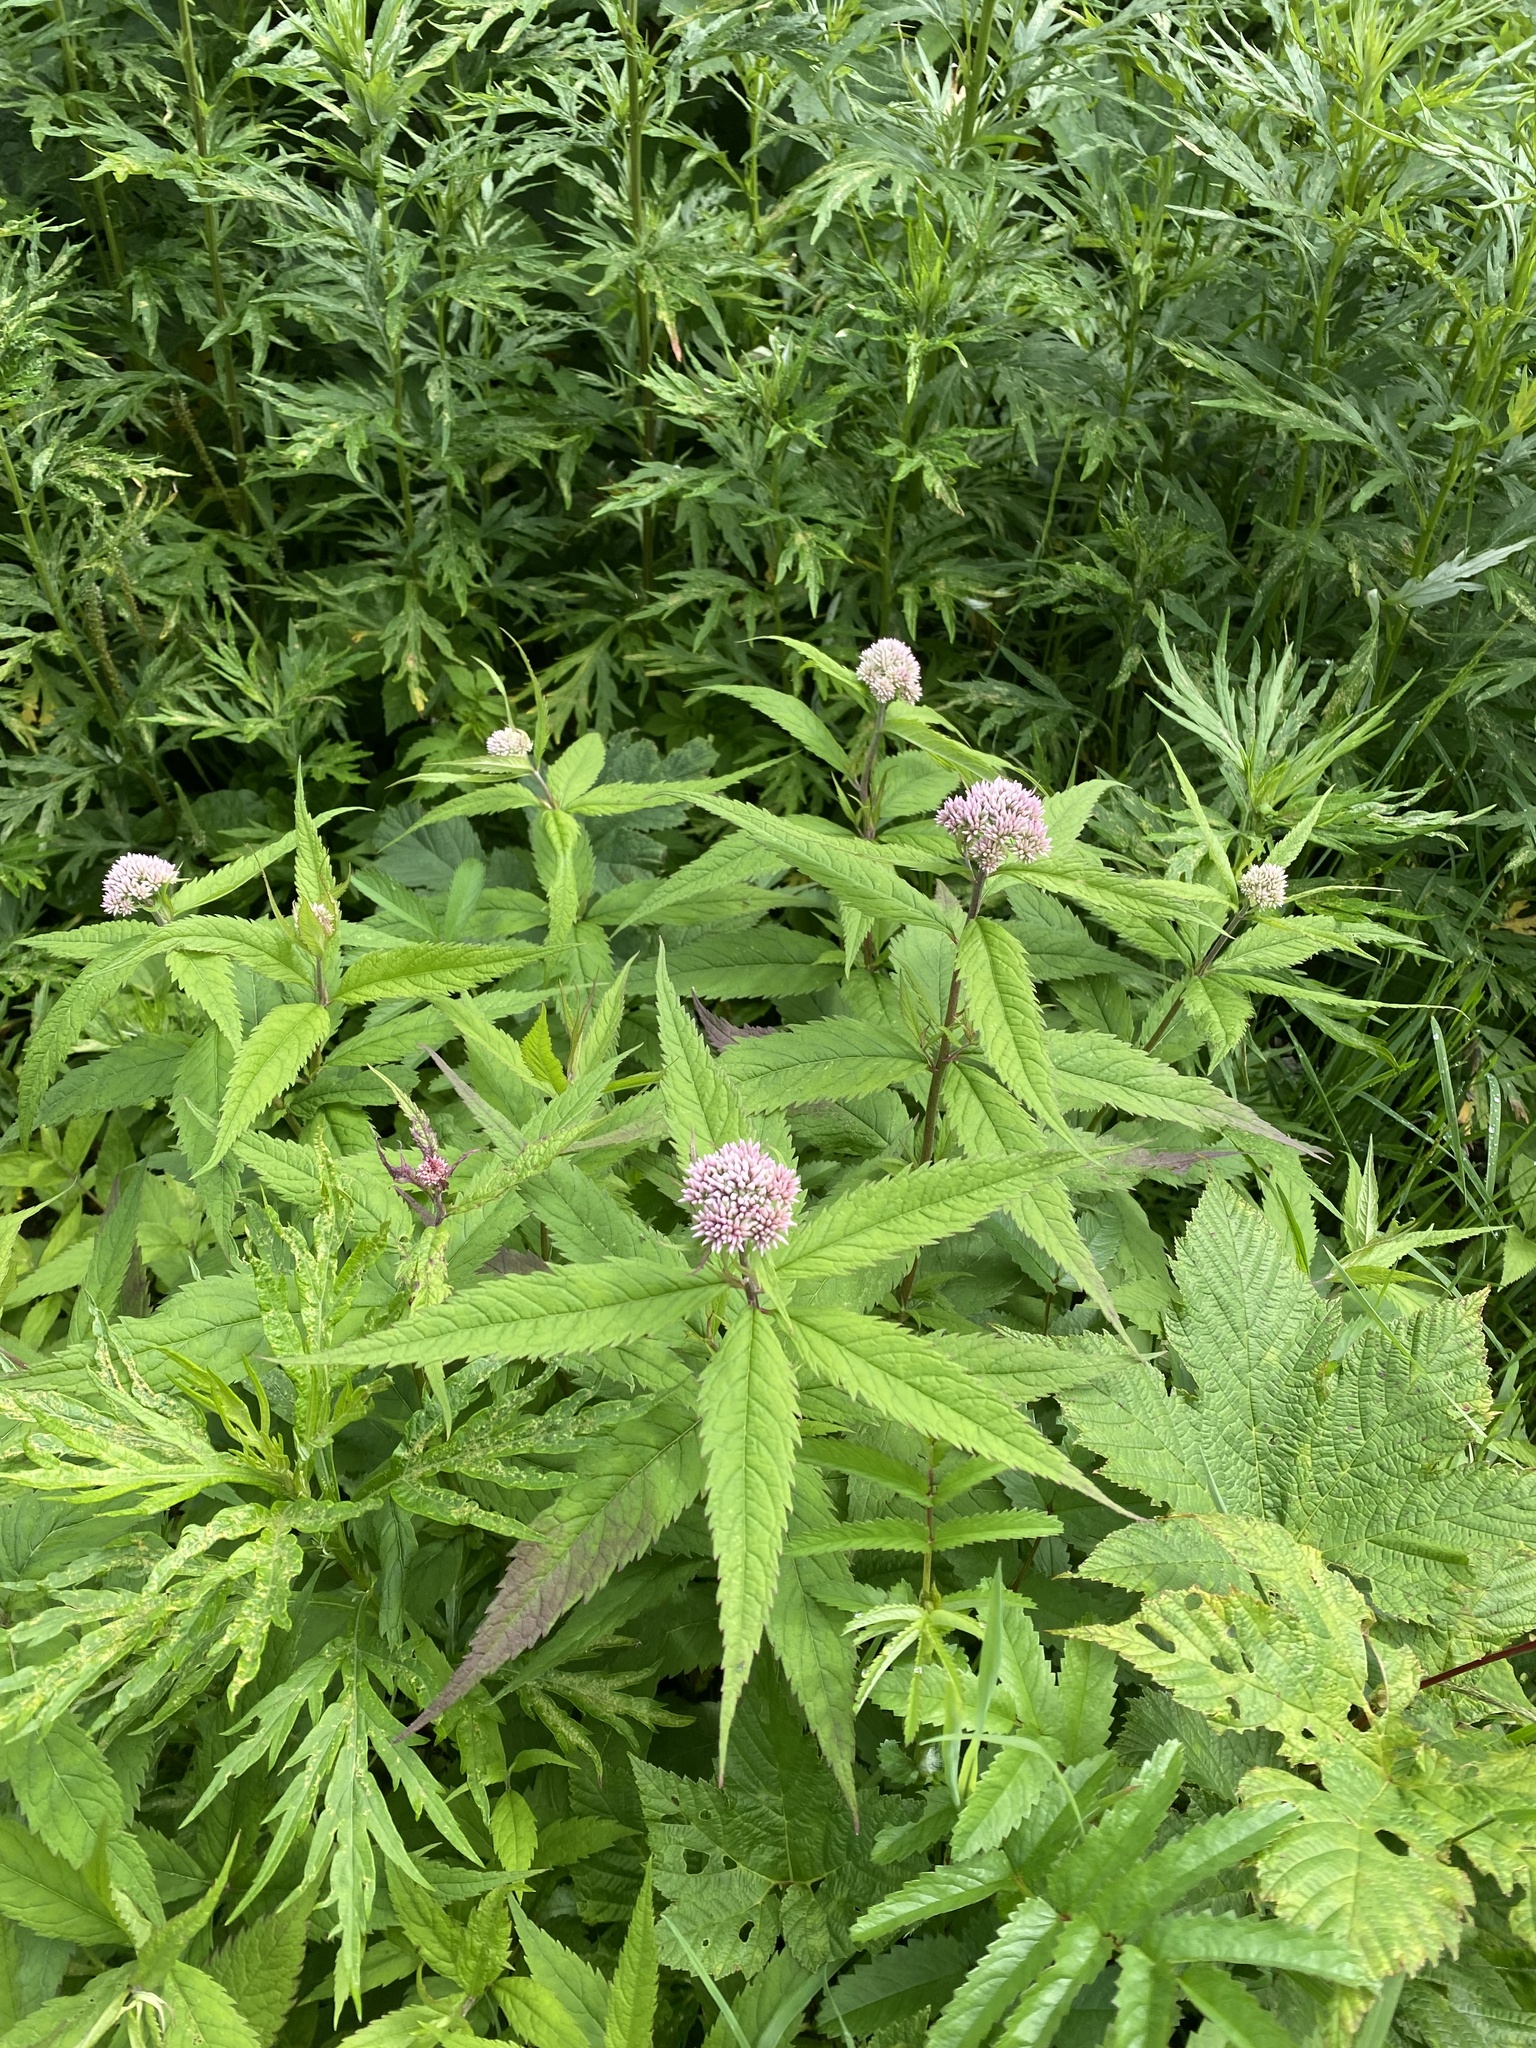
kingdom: Plantae
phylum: Tracheophyta
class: Magnoliopsida
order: Asterales
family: Asteraceae
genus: Eupatorium
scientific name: Eupatorium glehnii
